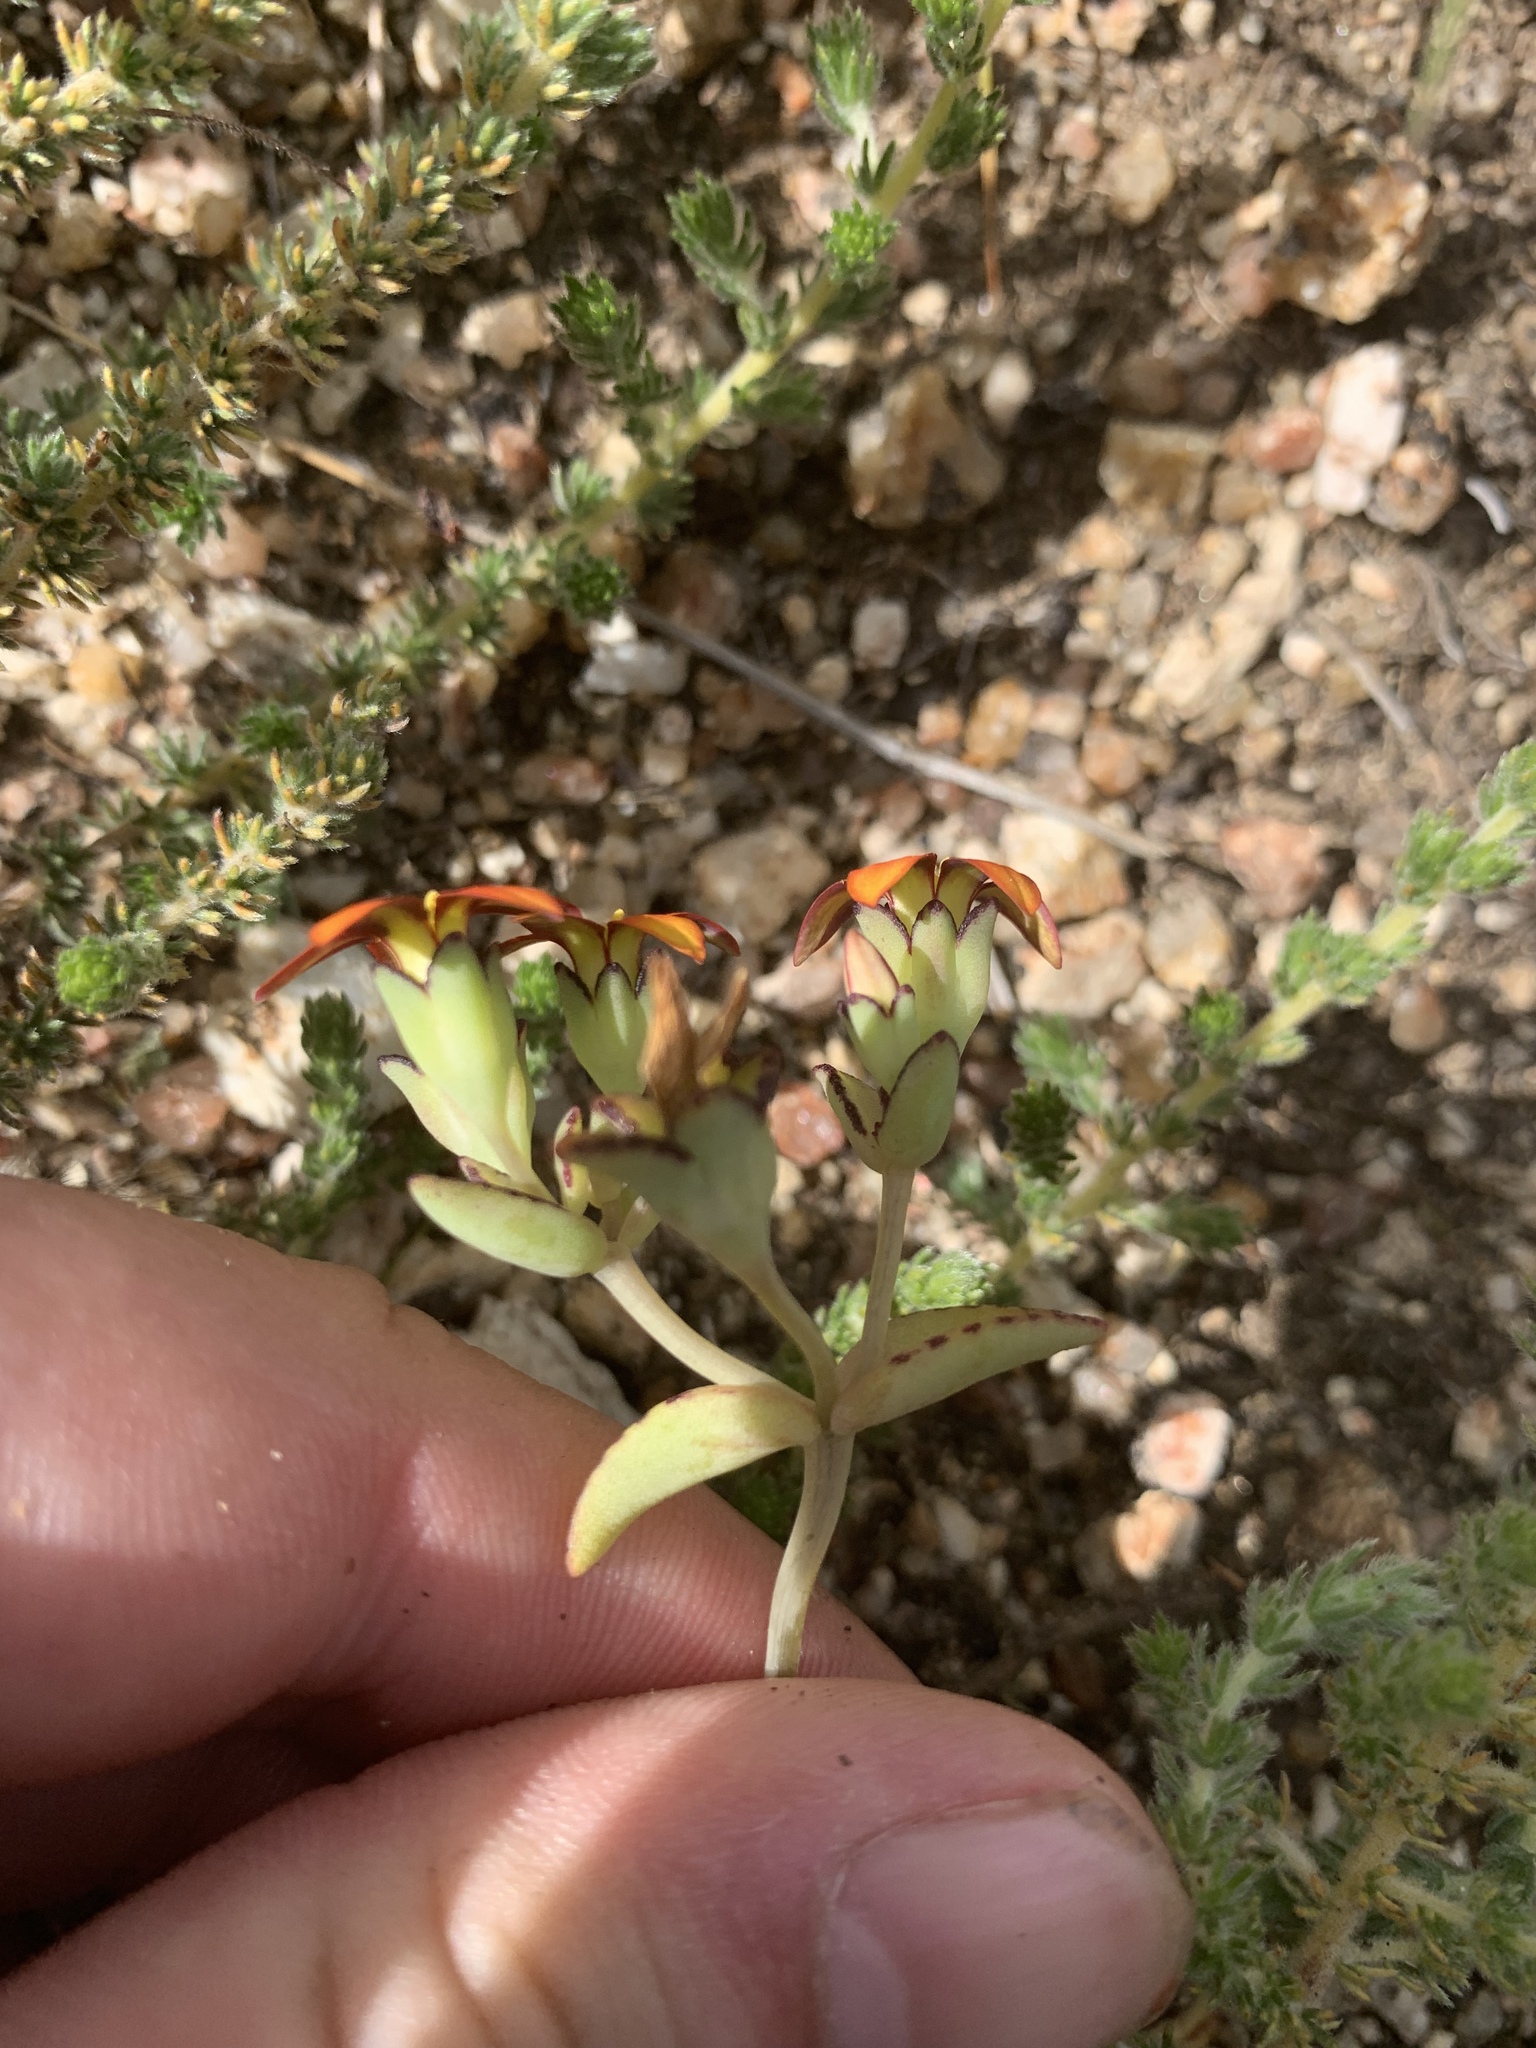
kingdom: Plantae
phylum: Tracheophyta
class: Magnoliopsida
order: Saxifragales
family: Crassulaceae
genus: Crassula
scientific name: Crassula dichotoma
